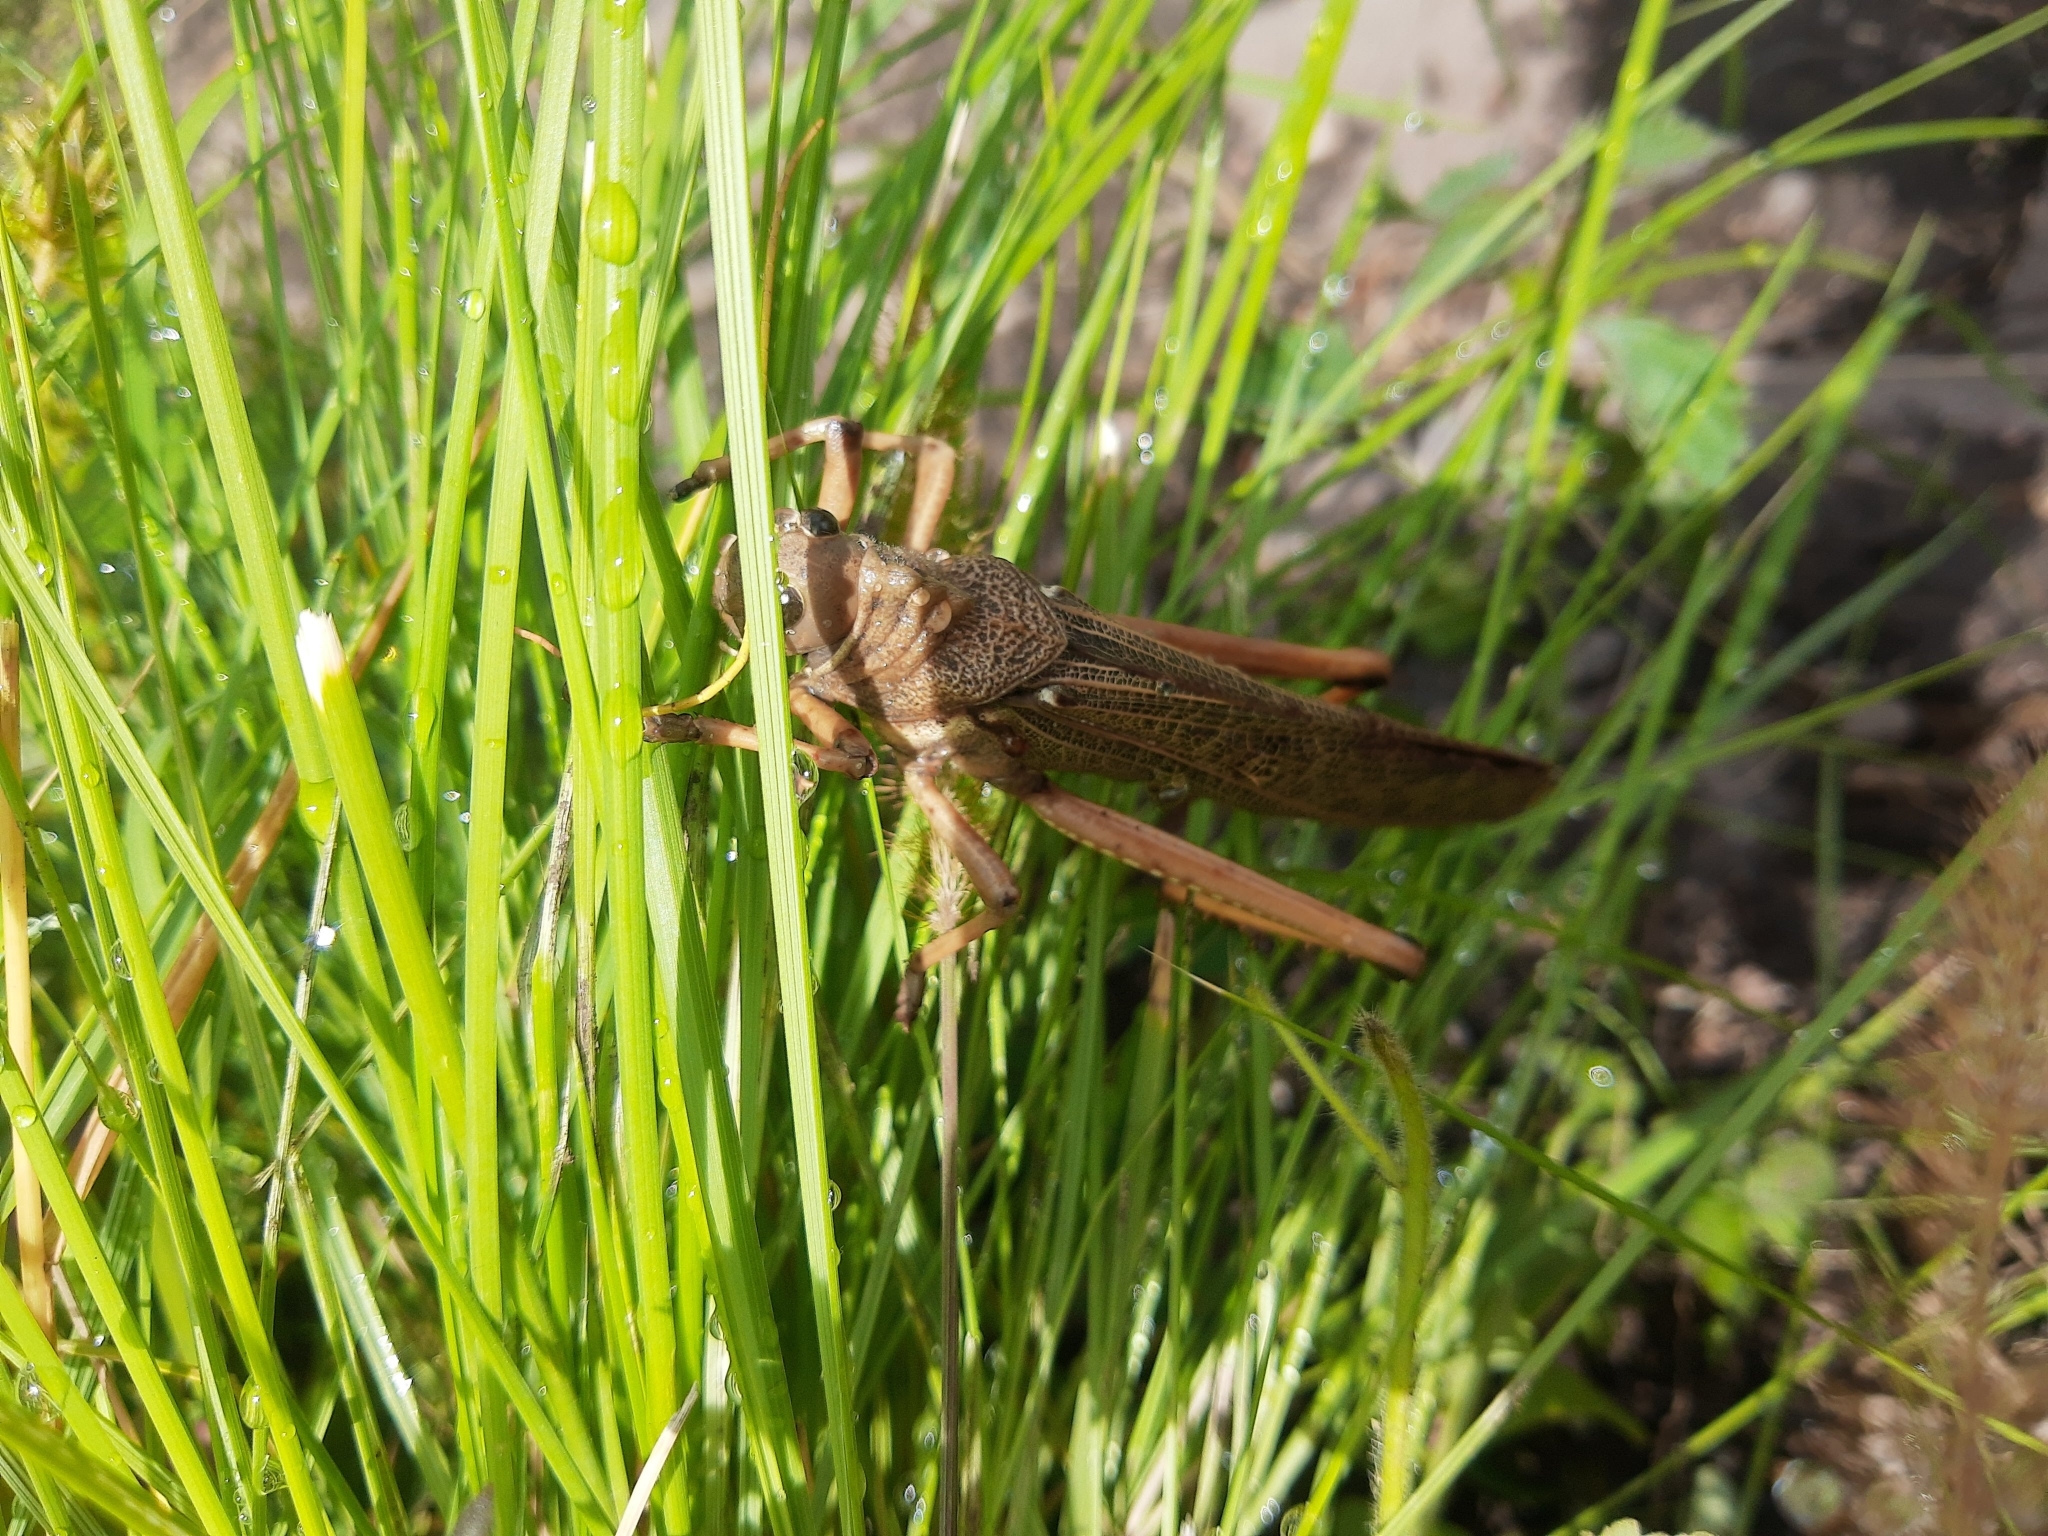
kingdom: Animalia
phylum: Arthropoda
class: Insecta
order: Orthoptera
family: Romaleidae
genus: Tropidacris
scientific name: Tropidacris collaris
